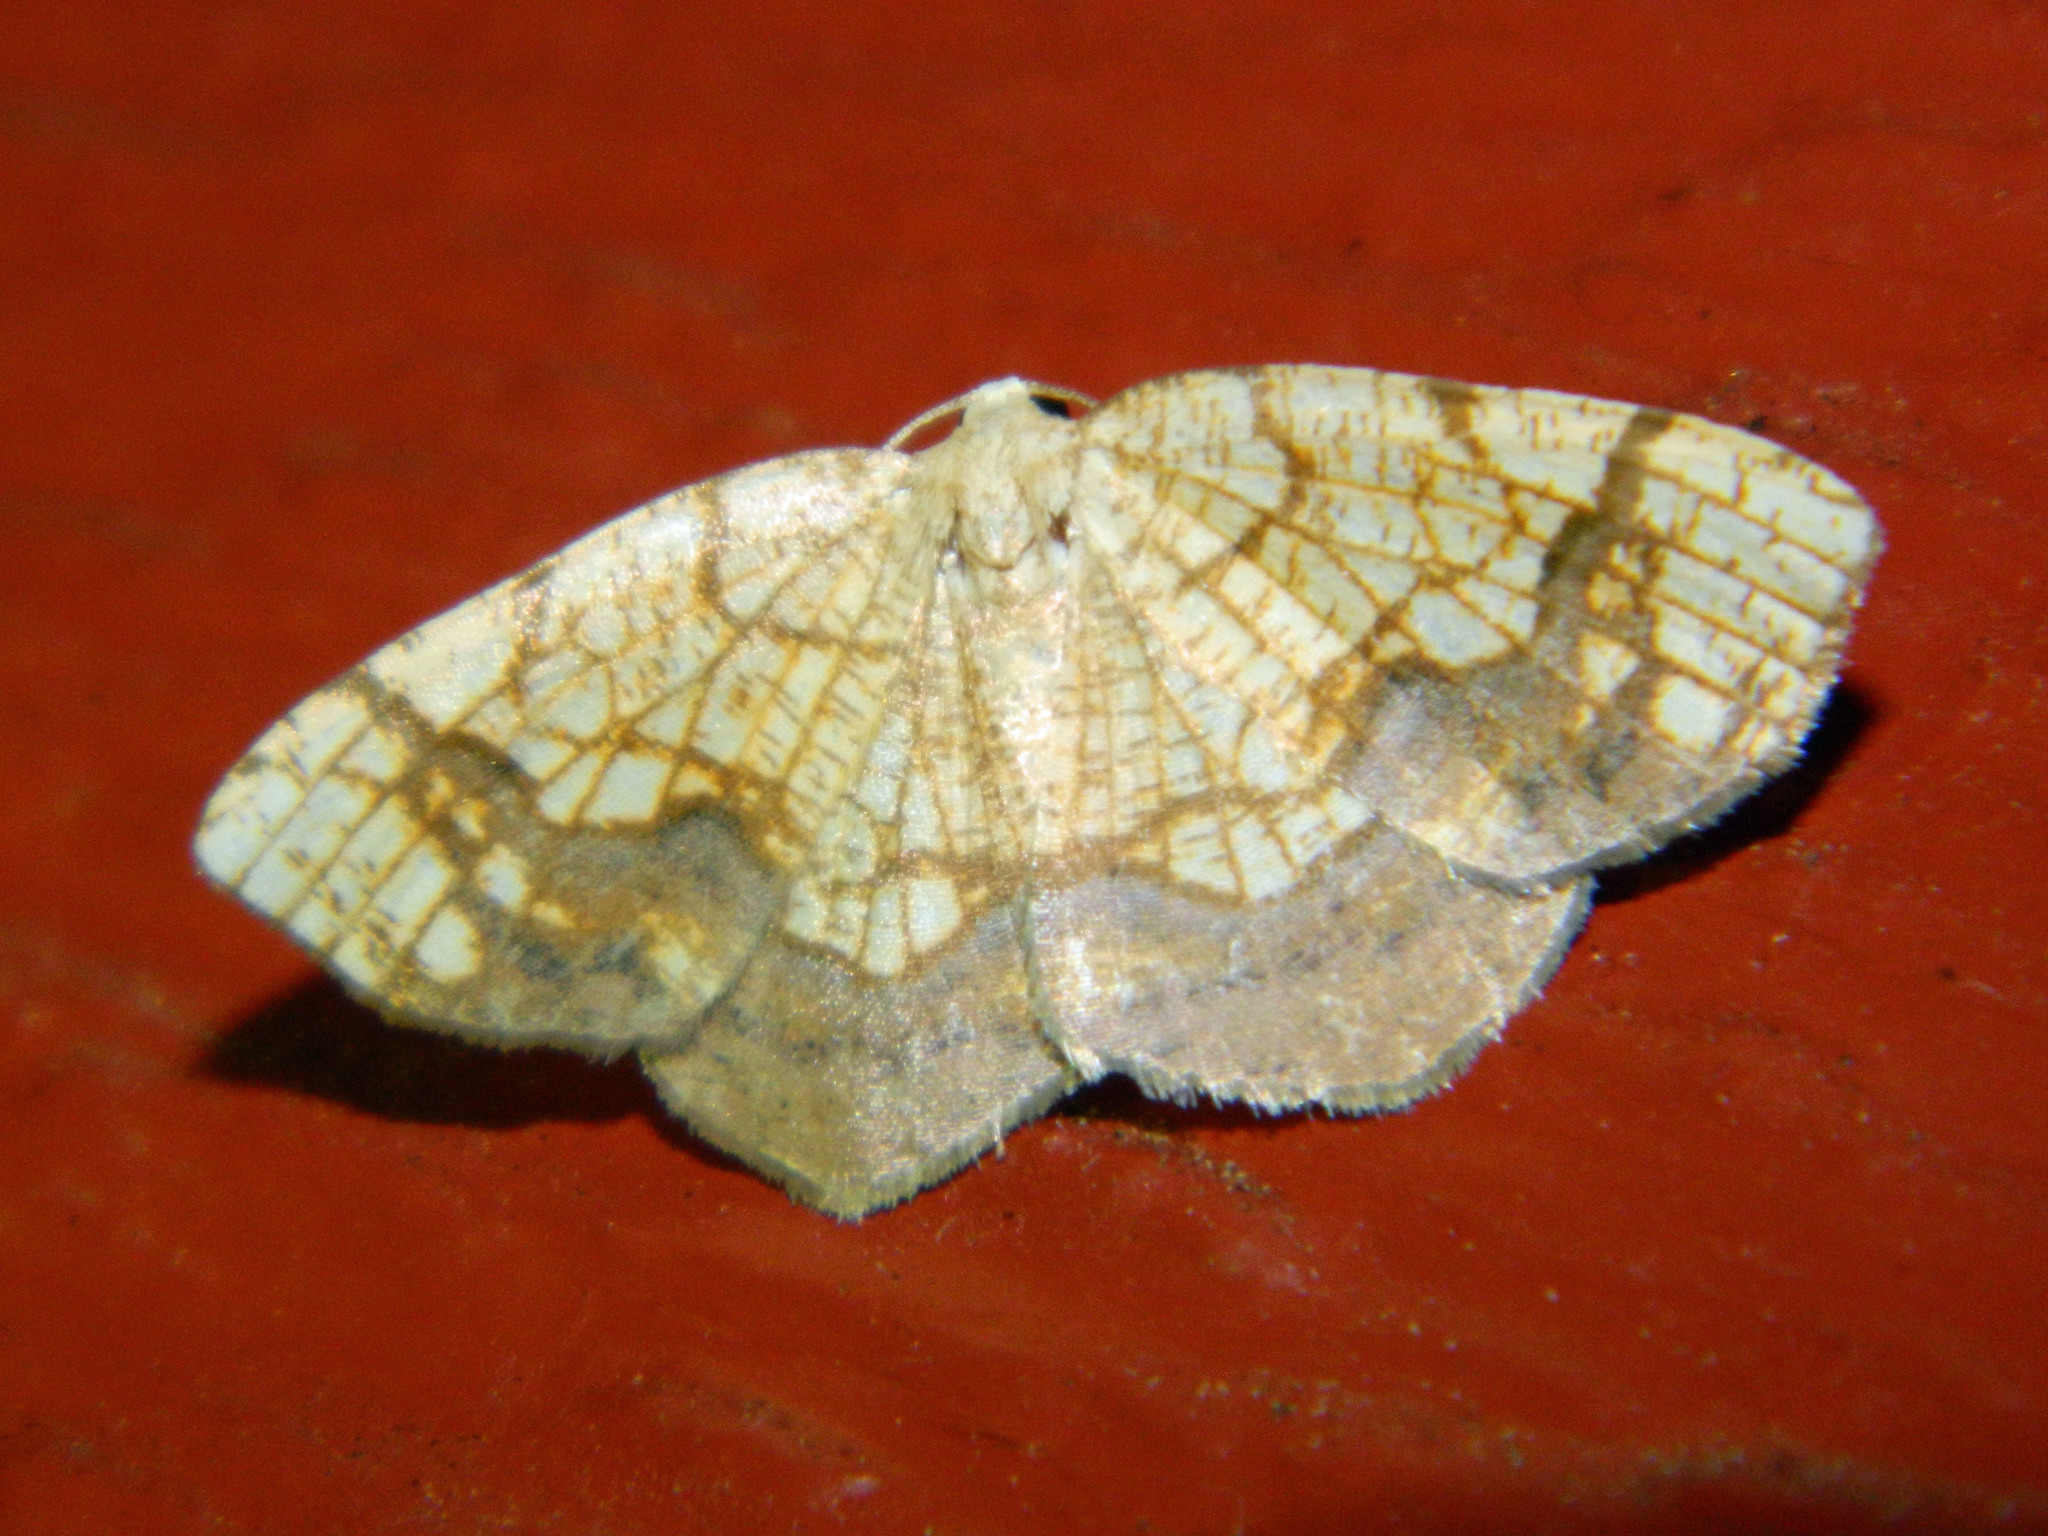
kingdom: Animalia
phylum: Arthropoda
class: Insecta
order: Lepidoptera
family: Geometridae
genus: Nematocampa
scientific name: Nematocampa resistaria
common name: Horned spanworm moth
